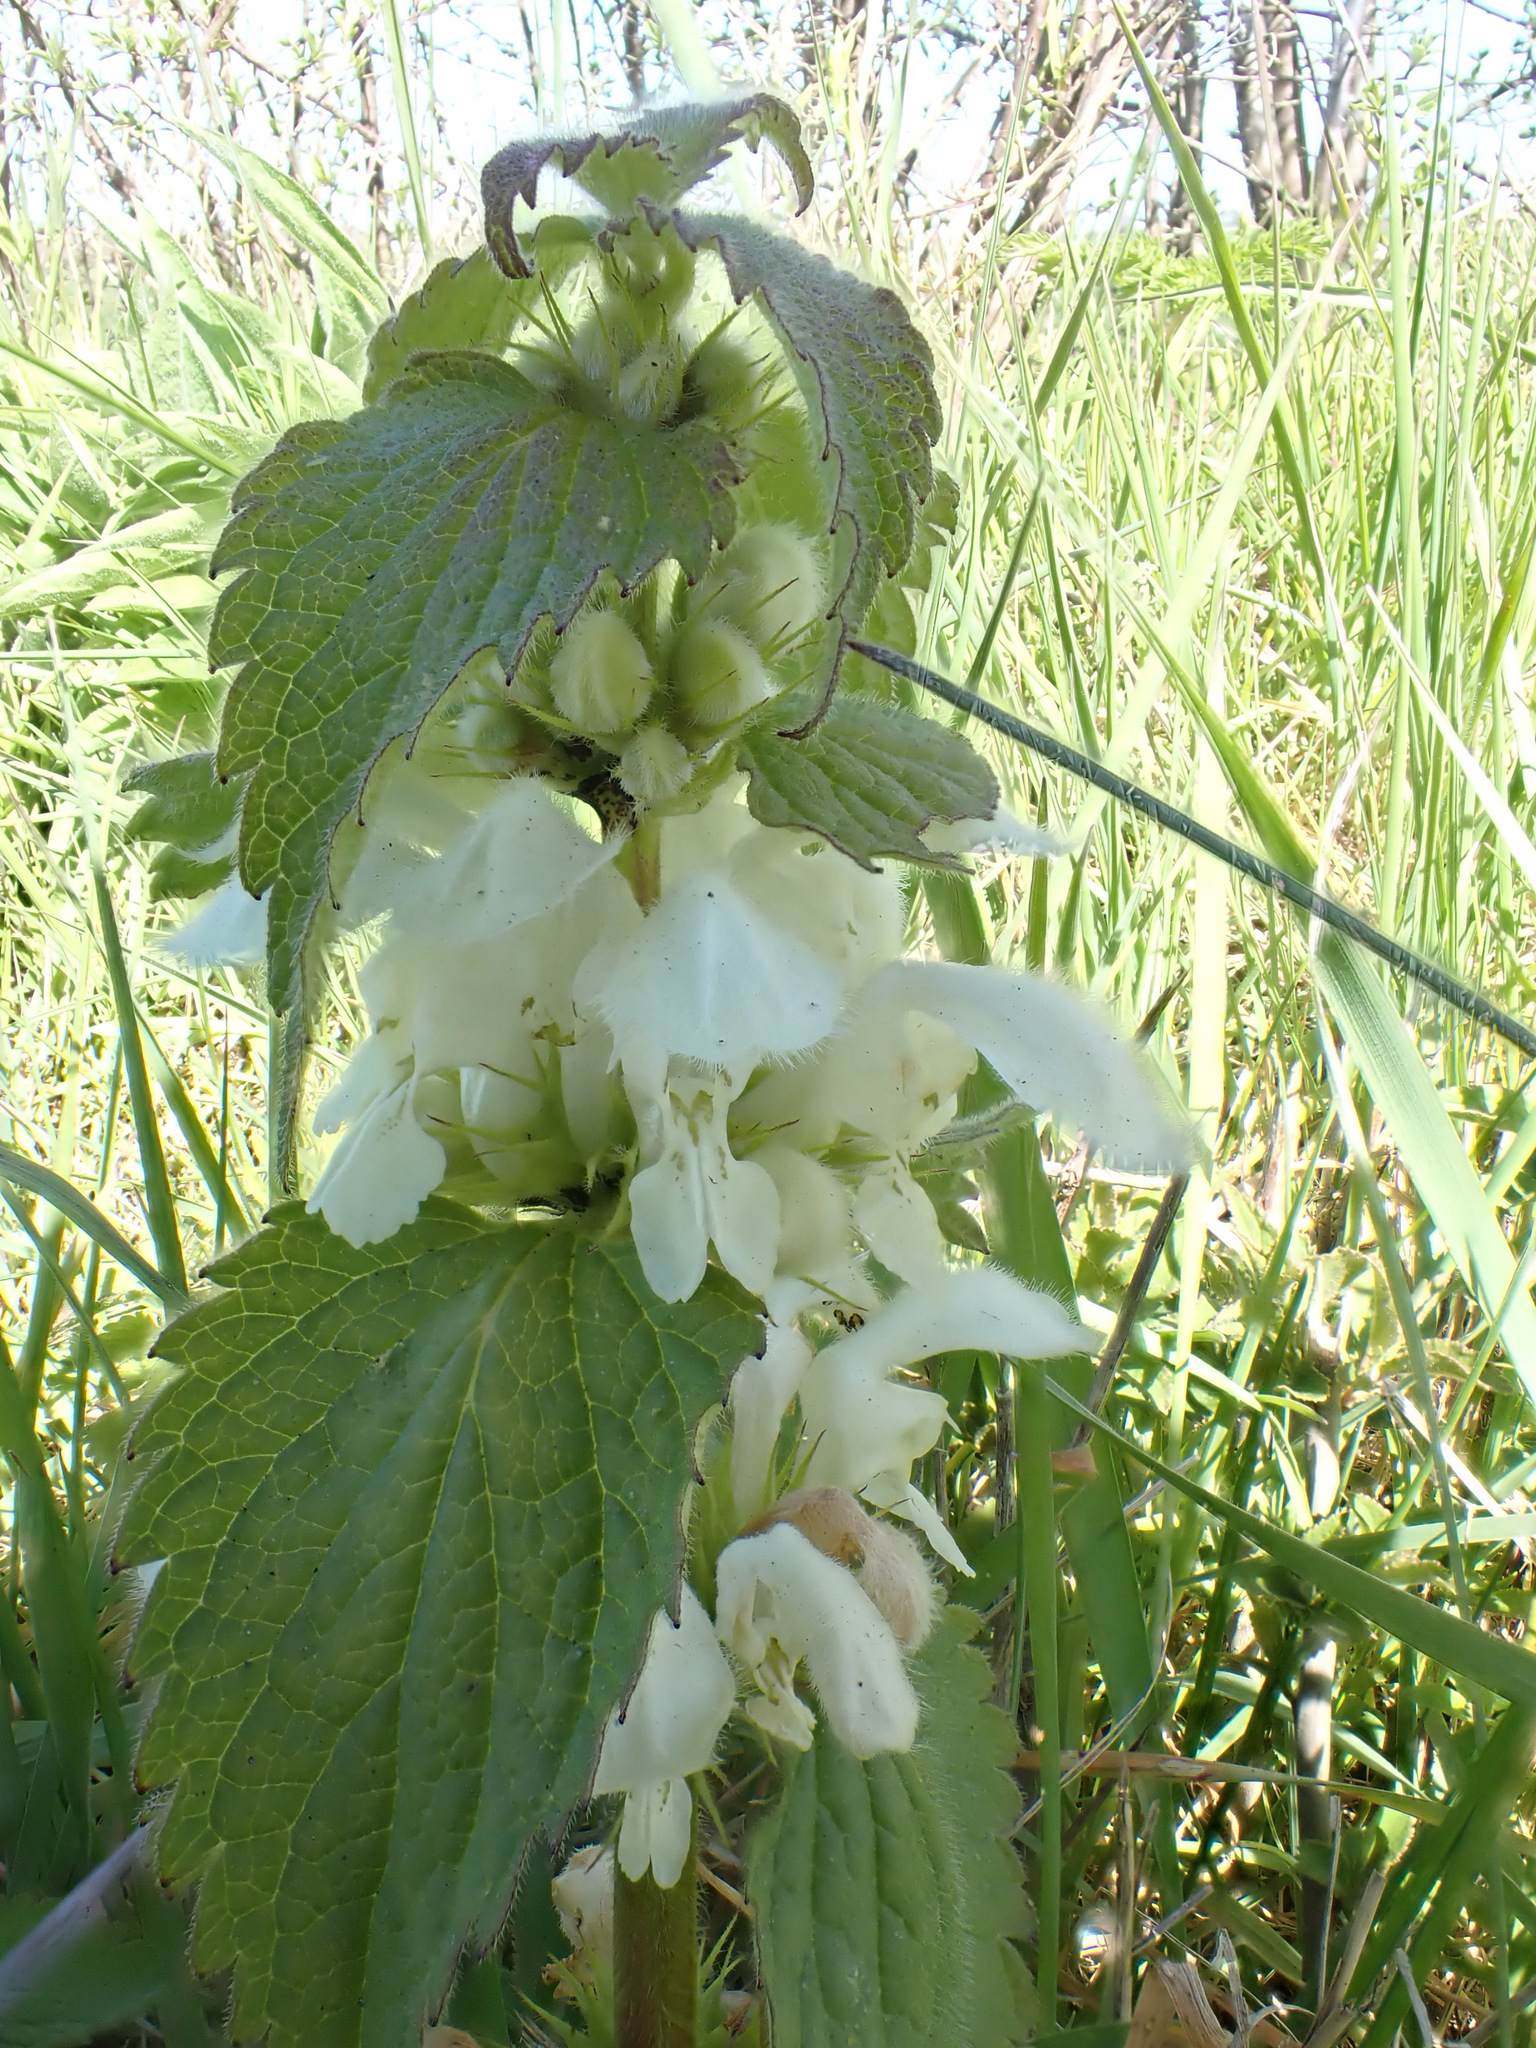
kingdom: Plantae
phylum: Tracheophyta
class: Magnoliopsida
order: Lamiales
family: Lamiaceae
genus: Lamium
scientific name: Lamium album
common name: White dead-nettle
